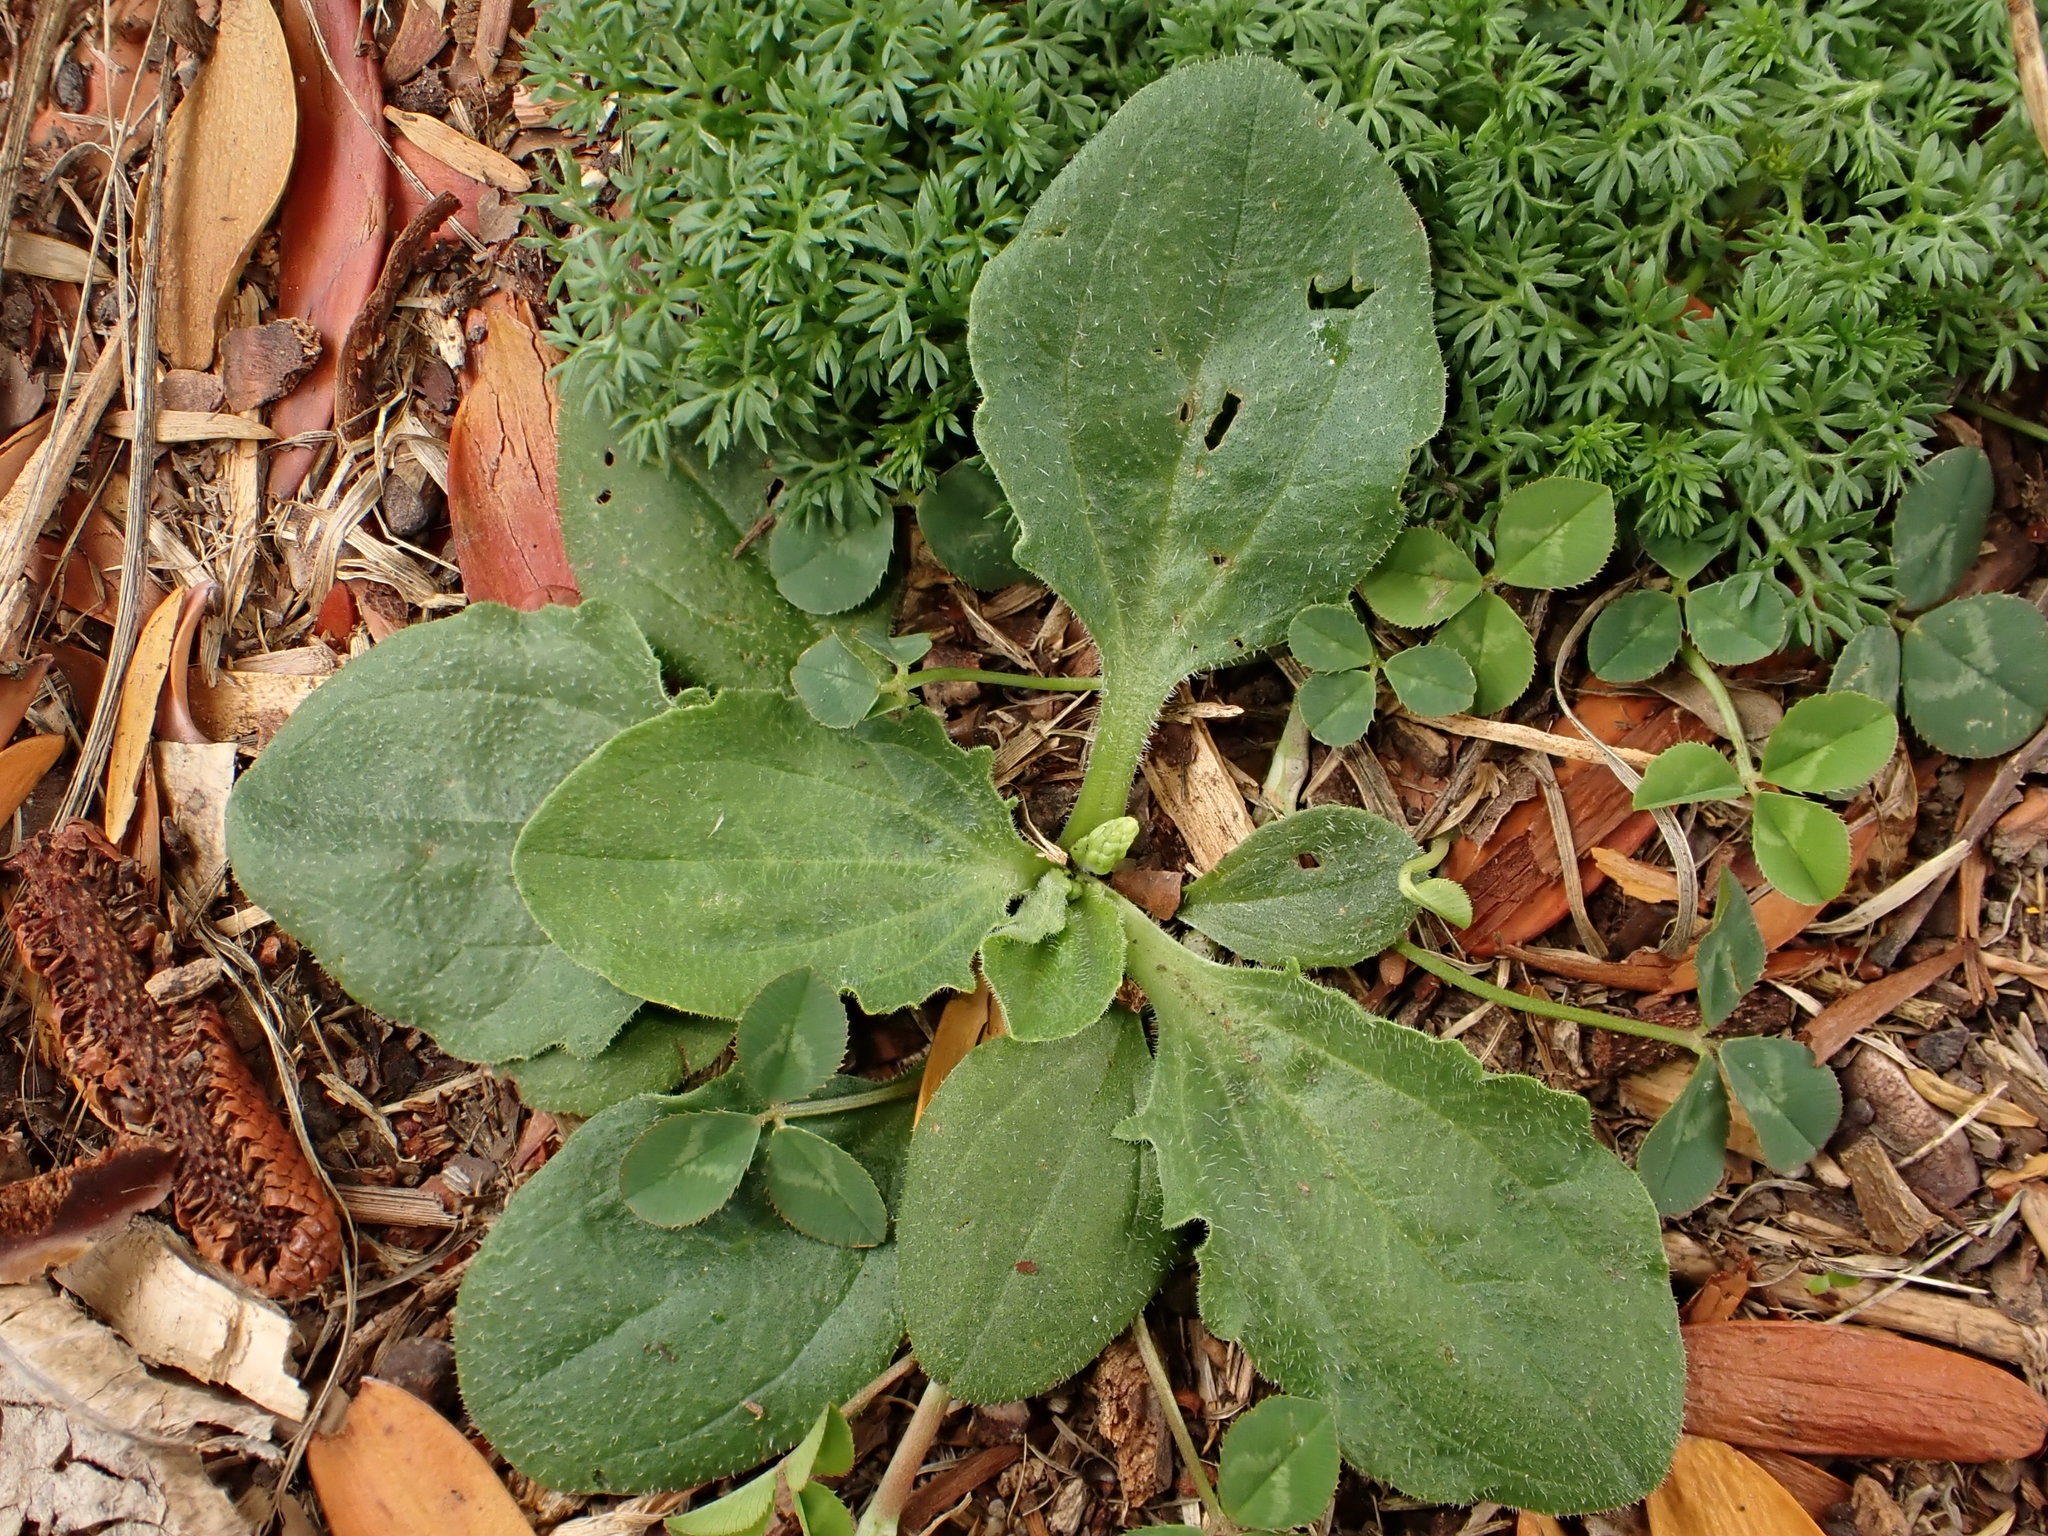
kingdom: Plantae
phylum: Tracheophyta
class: Magnoliopsida
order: Lamiales
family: Plantaginaceae
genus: Plantago
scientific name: Plantago major
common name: Common plantain
